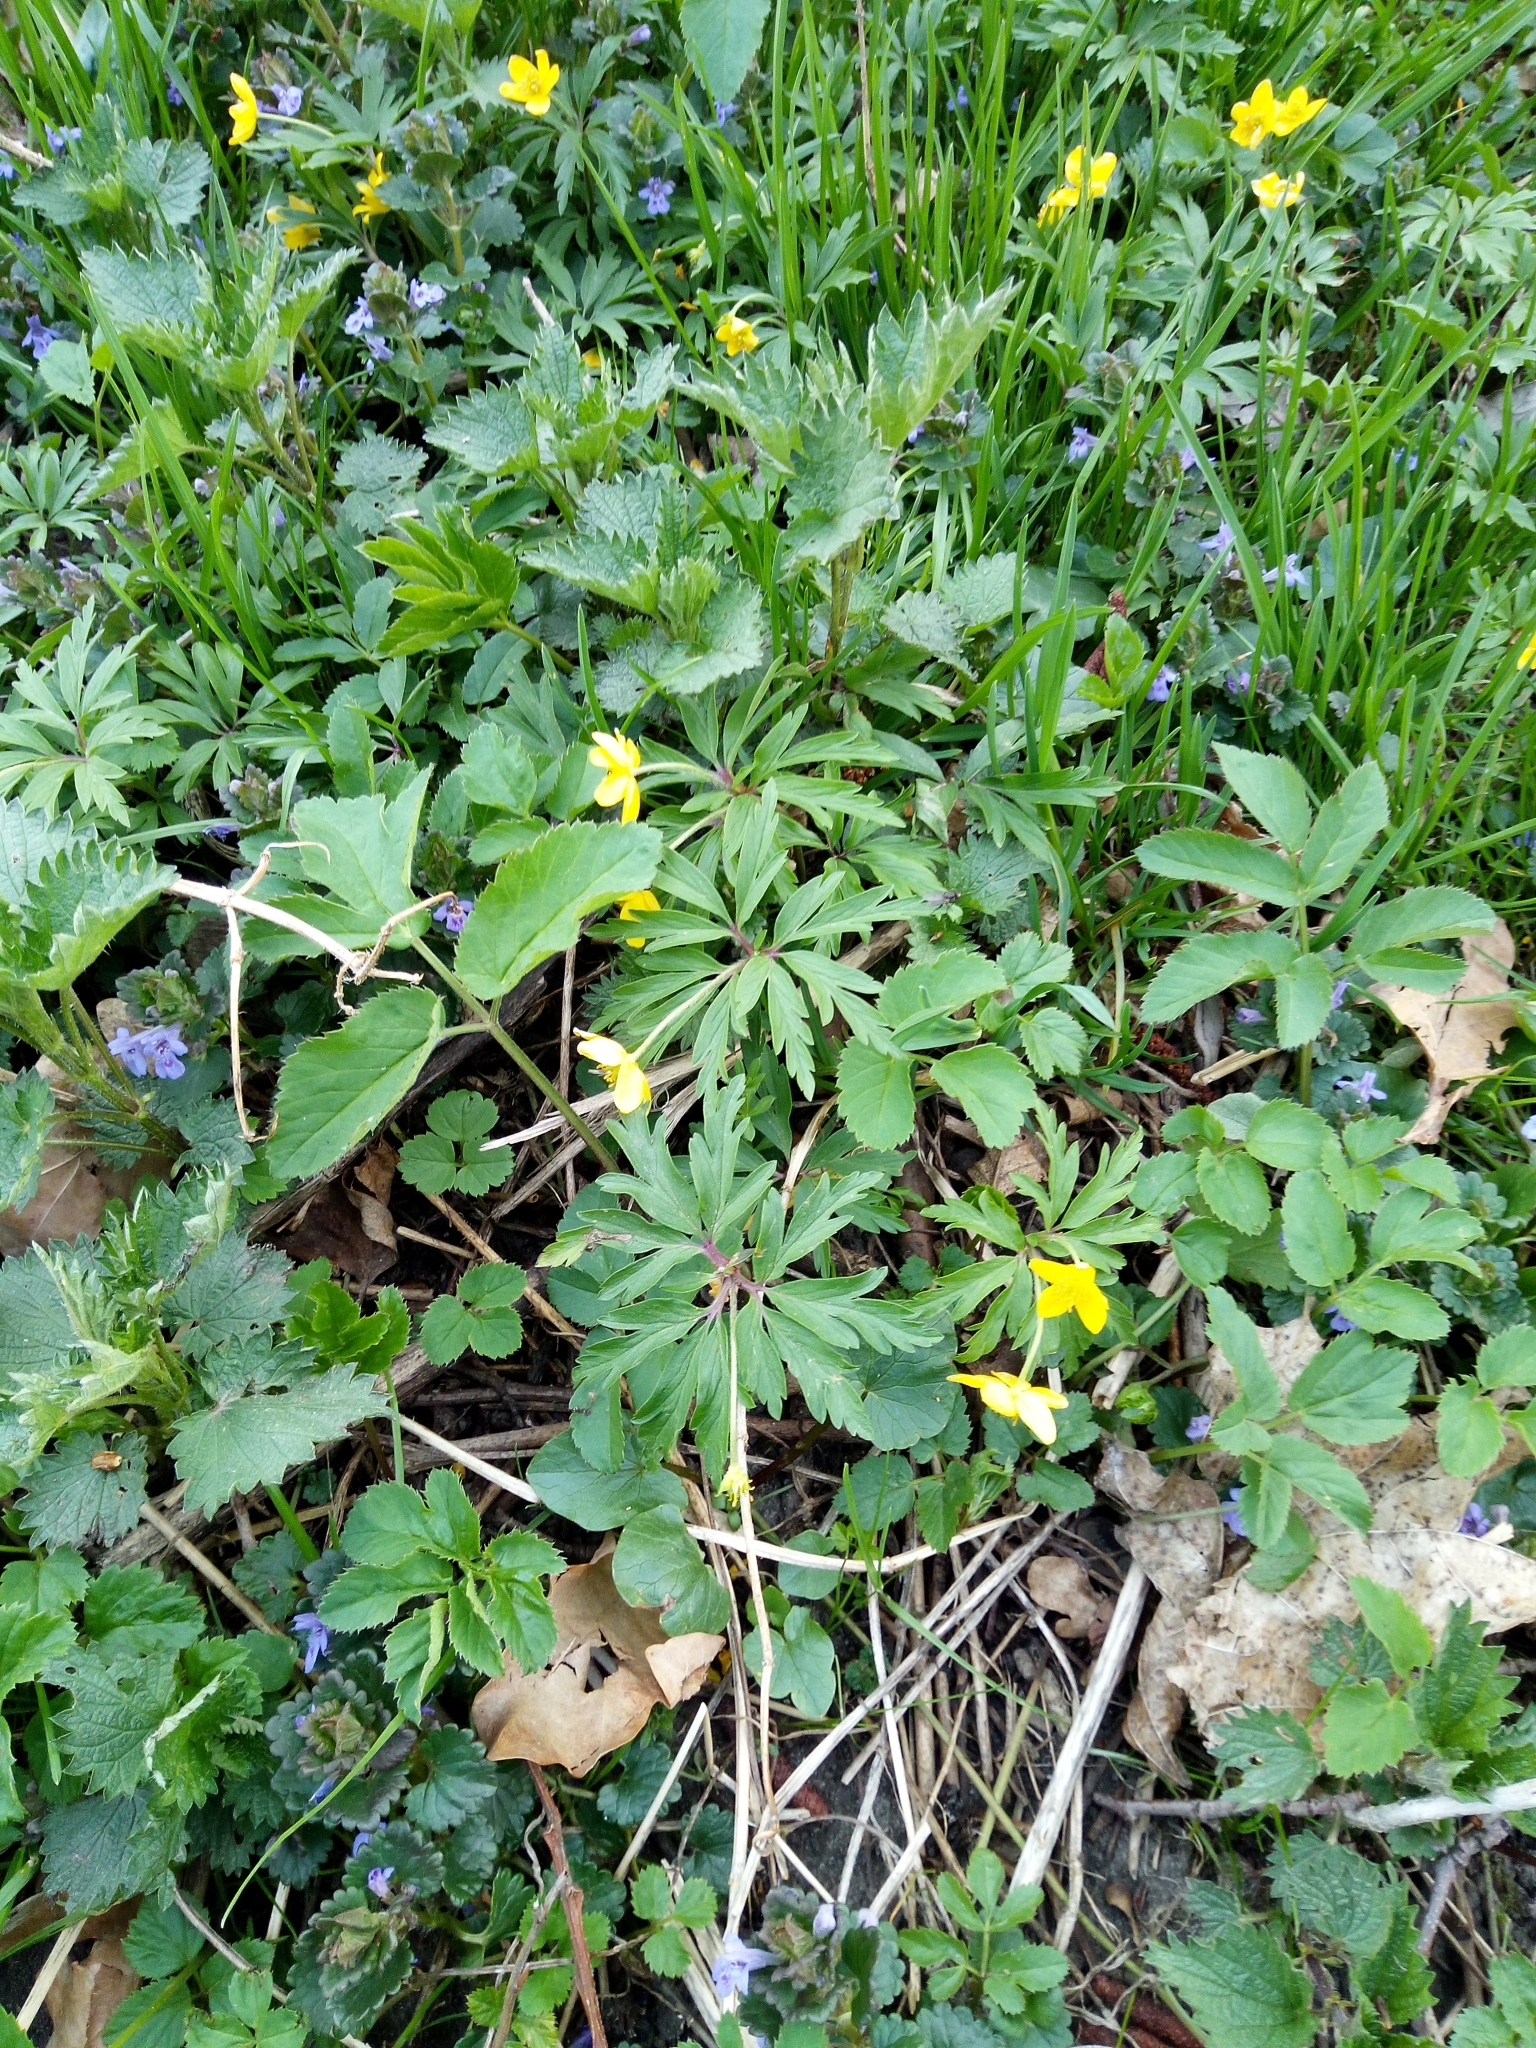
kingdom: Plantae
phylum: Tracheophyta
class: Magnoliopsida
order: Ranunculales
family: Ranunculaceae
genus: Anemone
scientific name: Anemone ranunculoides
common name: Yellow anemone
